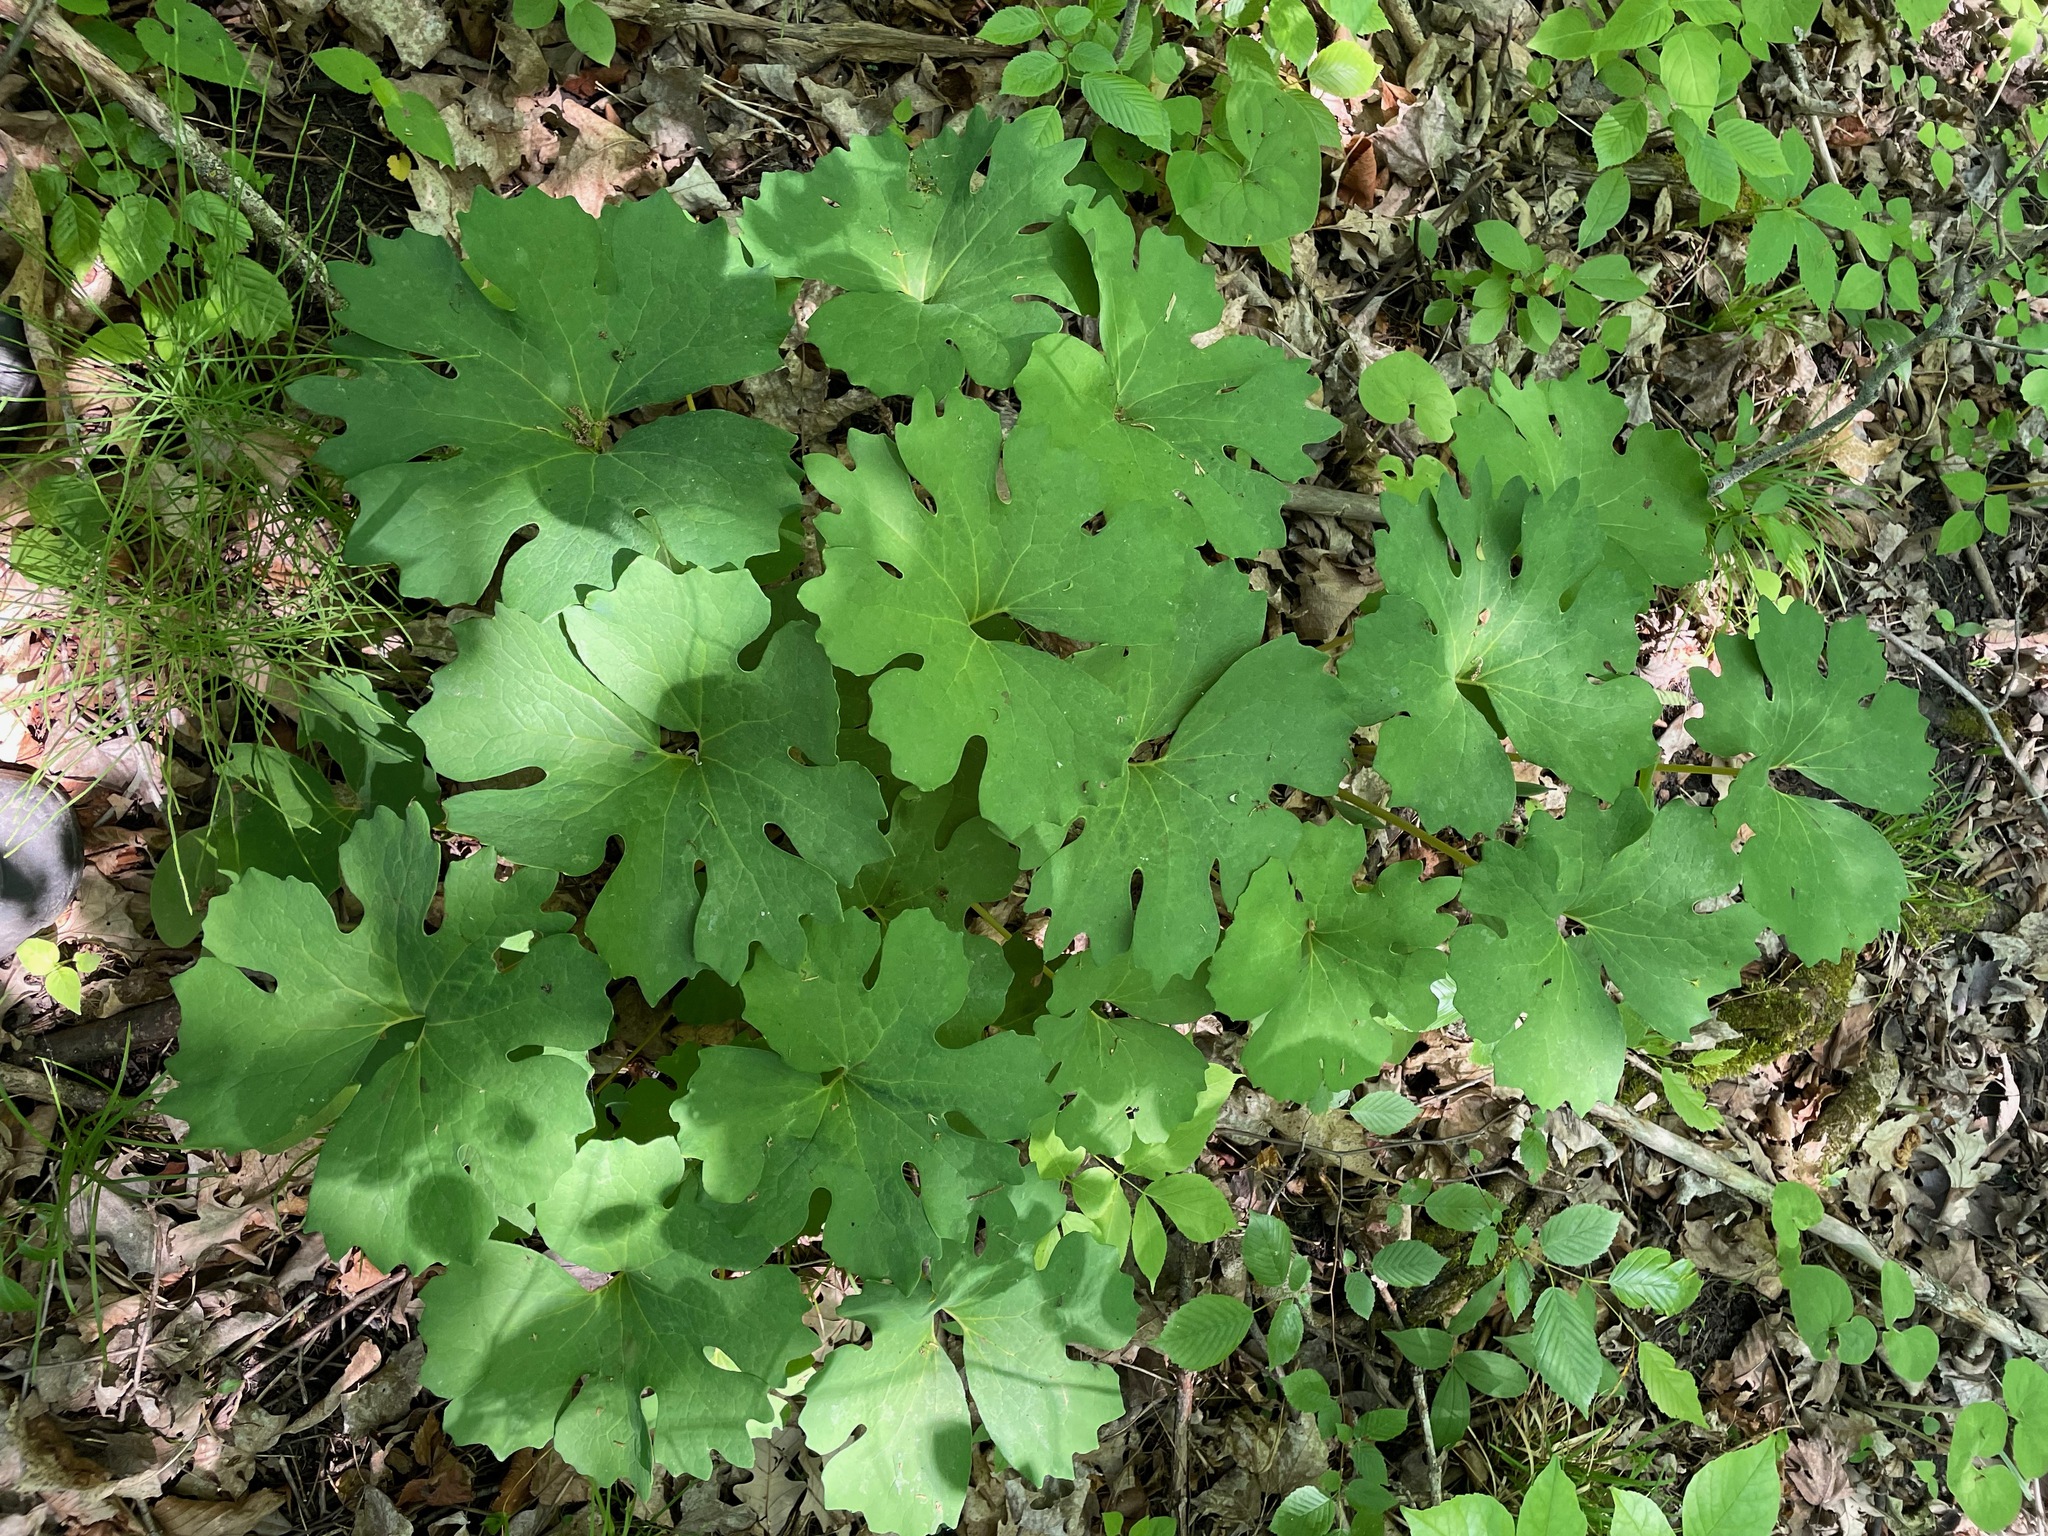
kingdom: Plantae
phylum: Tracheophyta
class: Magnoliopsida
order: Ranunculales
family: Papaveraceae
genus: Sanguinaria
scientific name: Sanguinaria canadensis
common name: Bloodroot
